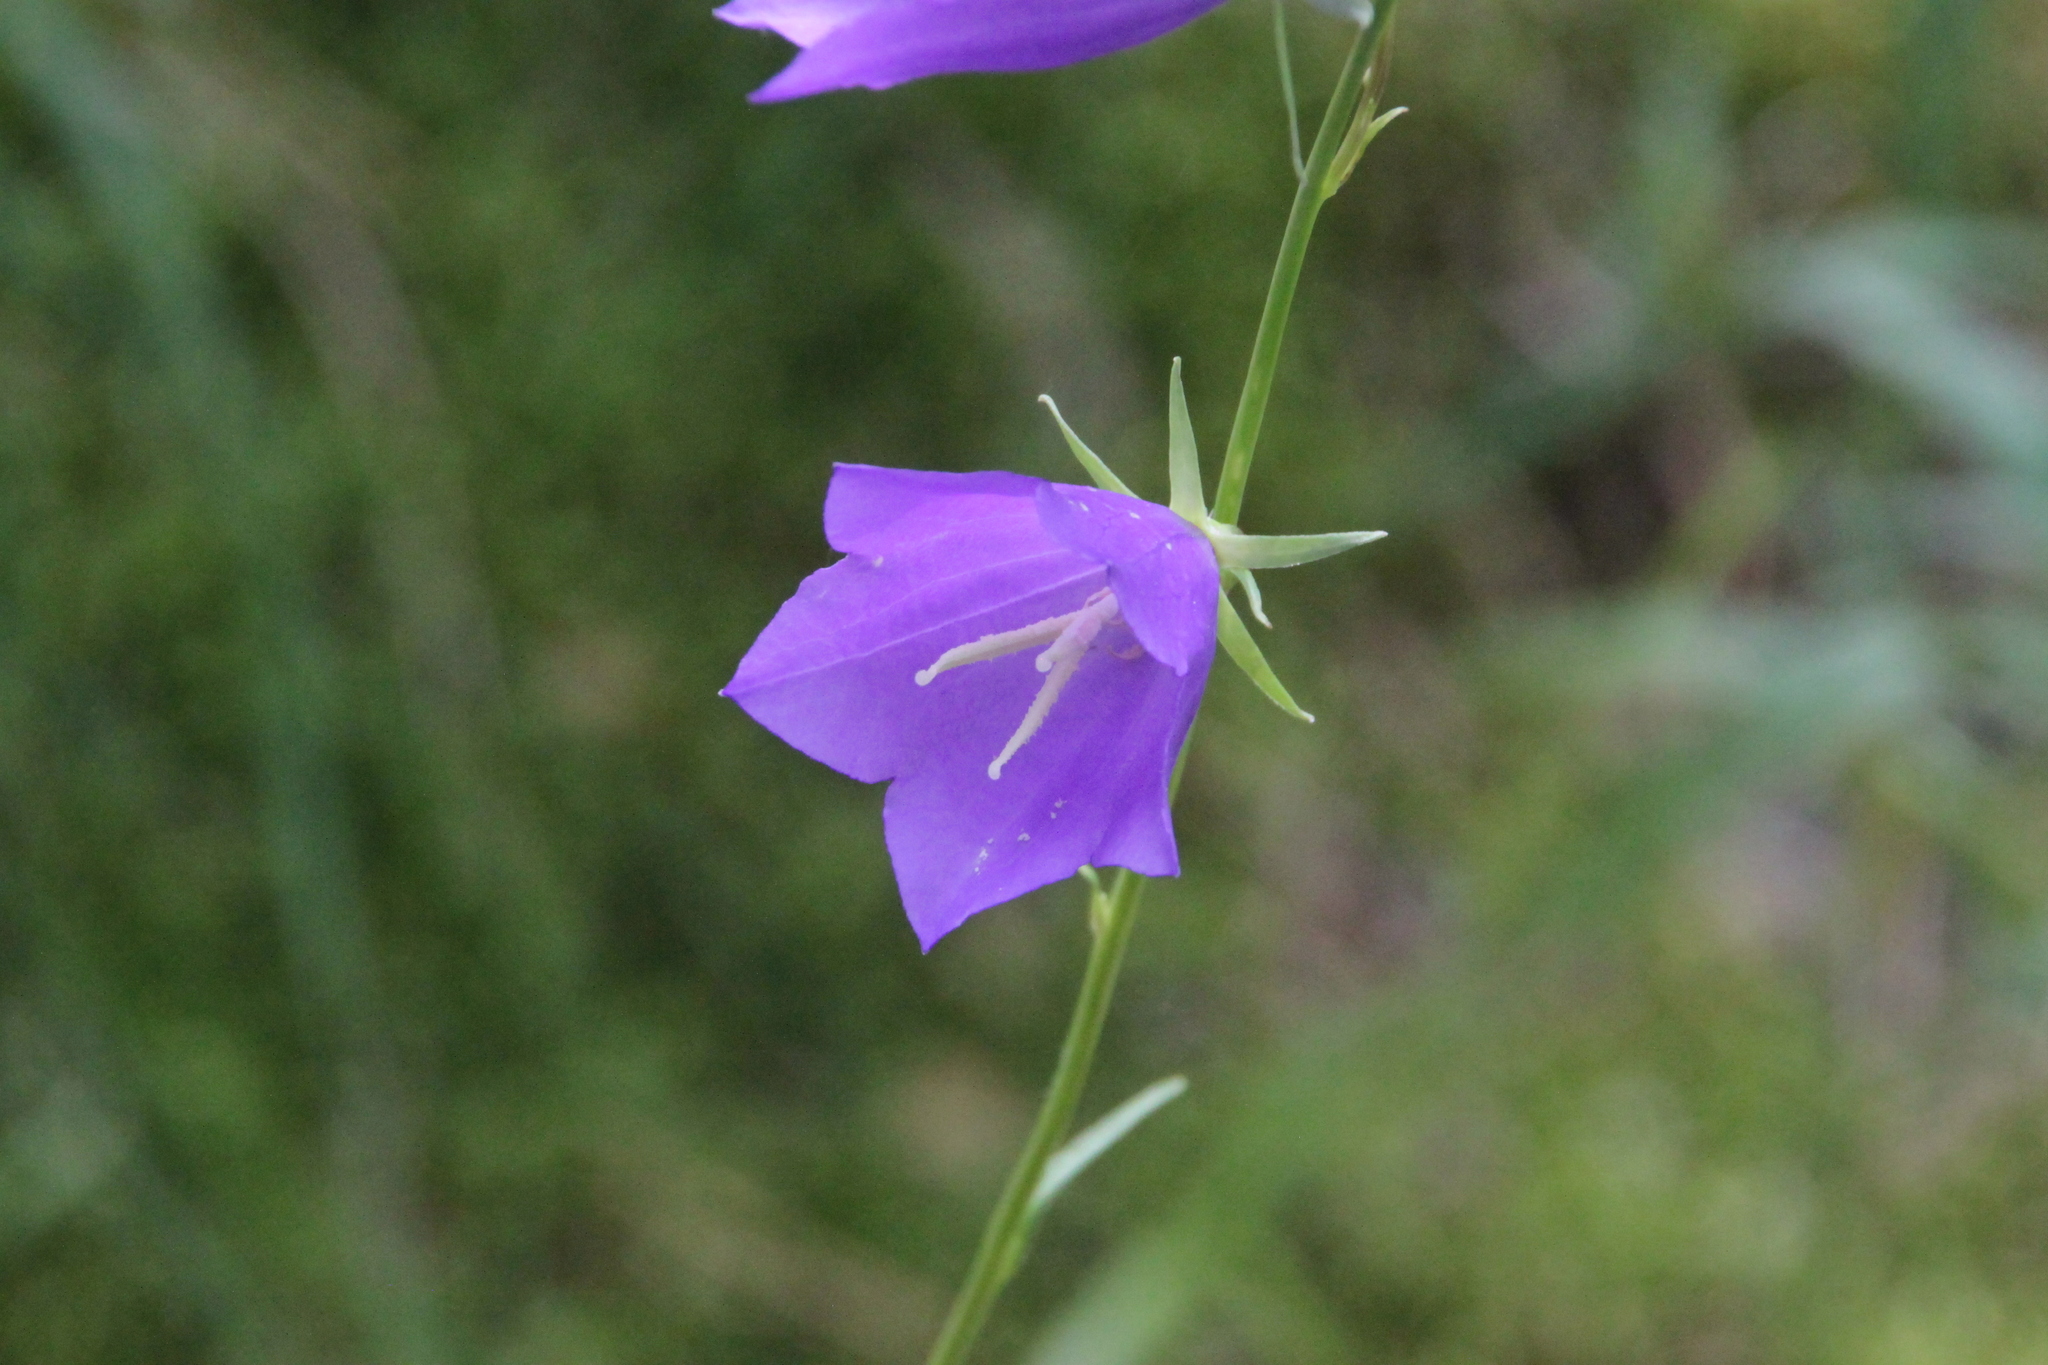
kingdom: Plantae
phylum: Tracheophyta
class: Magnoliopsida
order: Asterales
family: Campanulaceae
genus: Campanula
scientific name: Campanula persicifolia
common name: Peach-leaved bellflower
